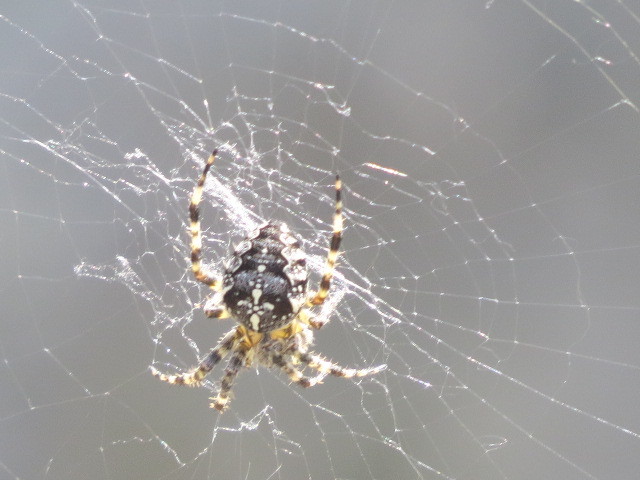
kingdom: Animalia
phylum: Arthropoda
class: Arachnida
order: Araneae
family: Araneidae
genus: Araneus
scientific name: Araneus diadematus
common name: Cross orbweaver
